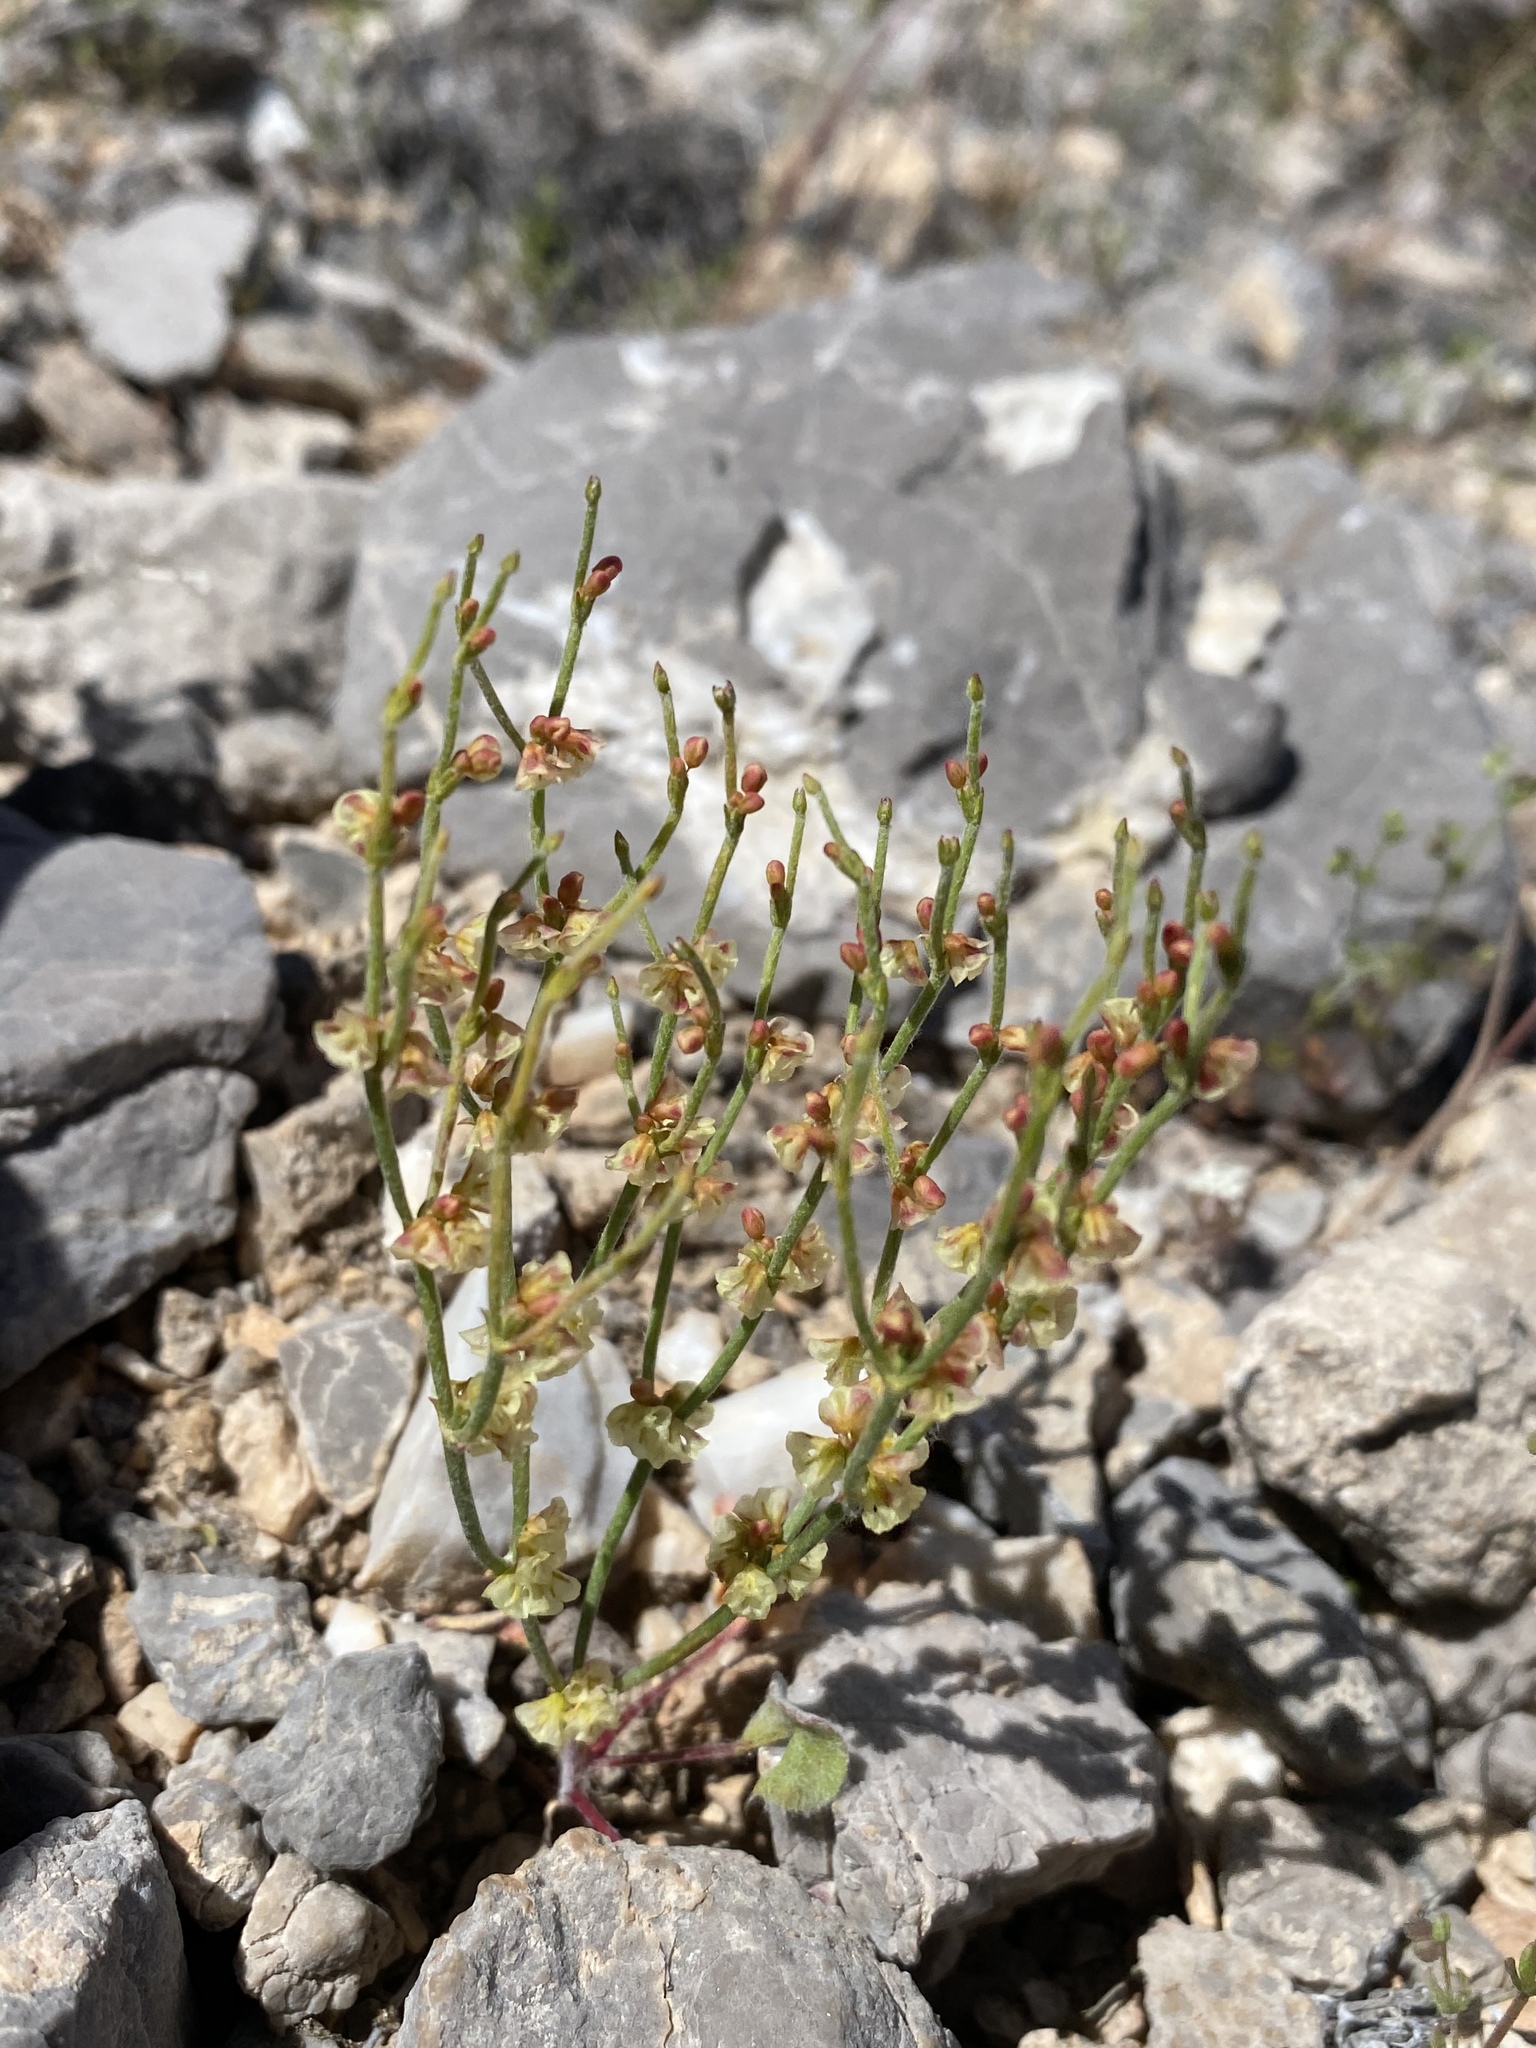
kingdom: Plantae
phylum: Tracheophyta
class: Magnoliopsida
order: Caryophyllales
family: Polygonaceae
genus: Eriogonum
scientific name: Eriogonum nidularium
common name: Bird's-nest wild buckwheat
